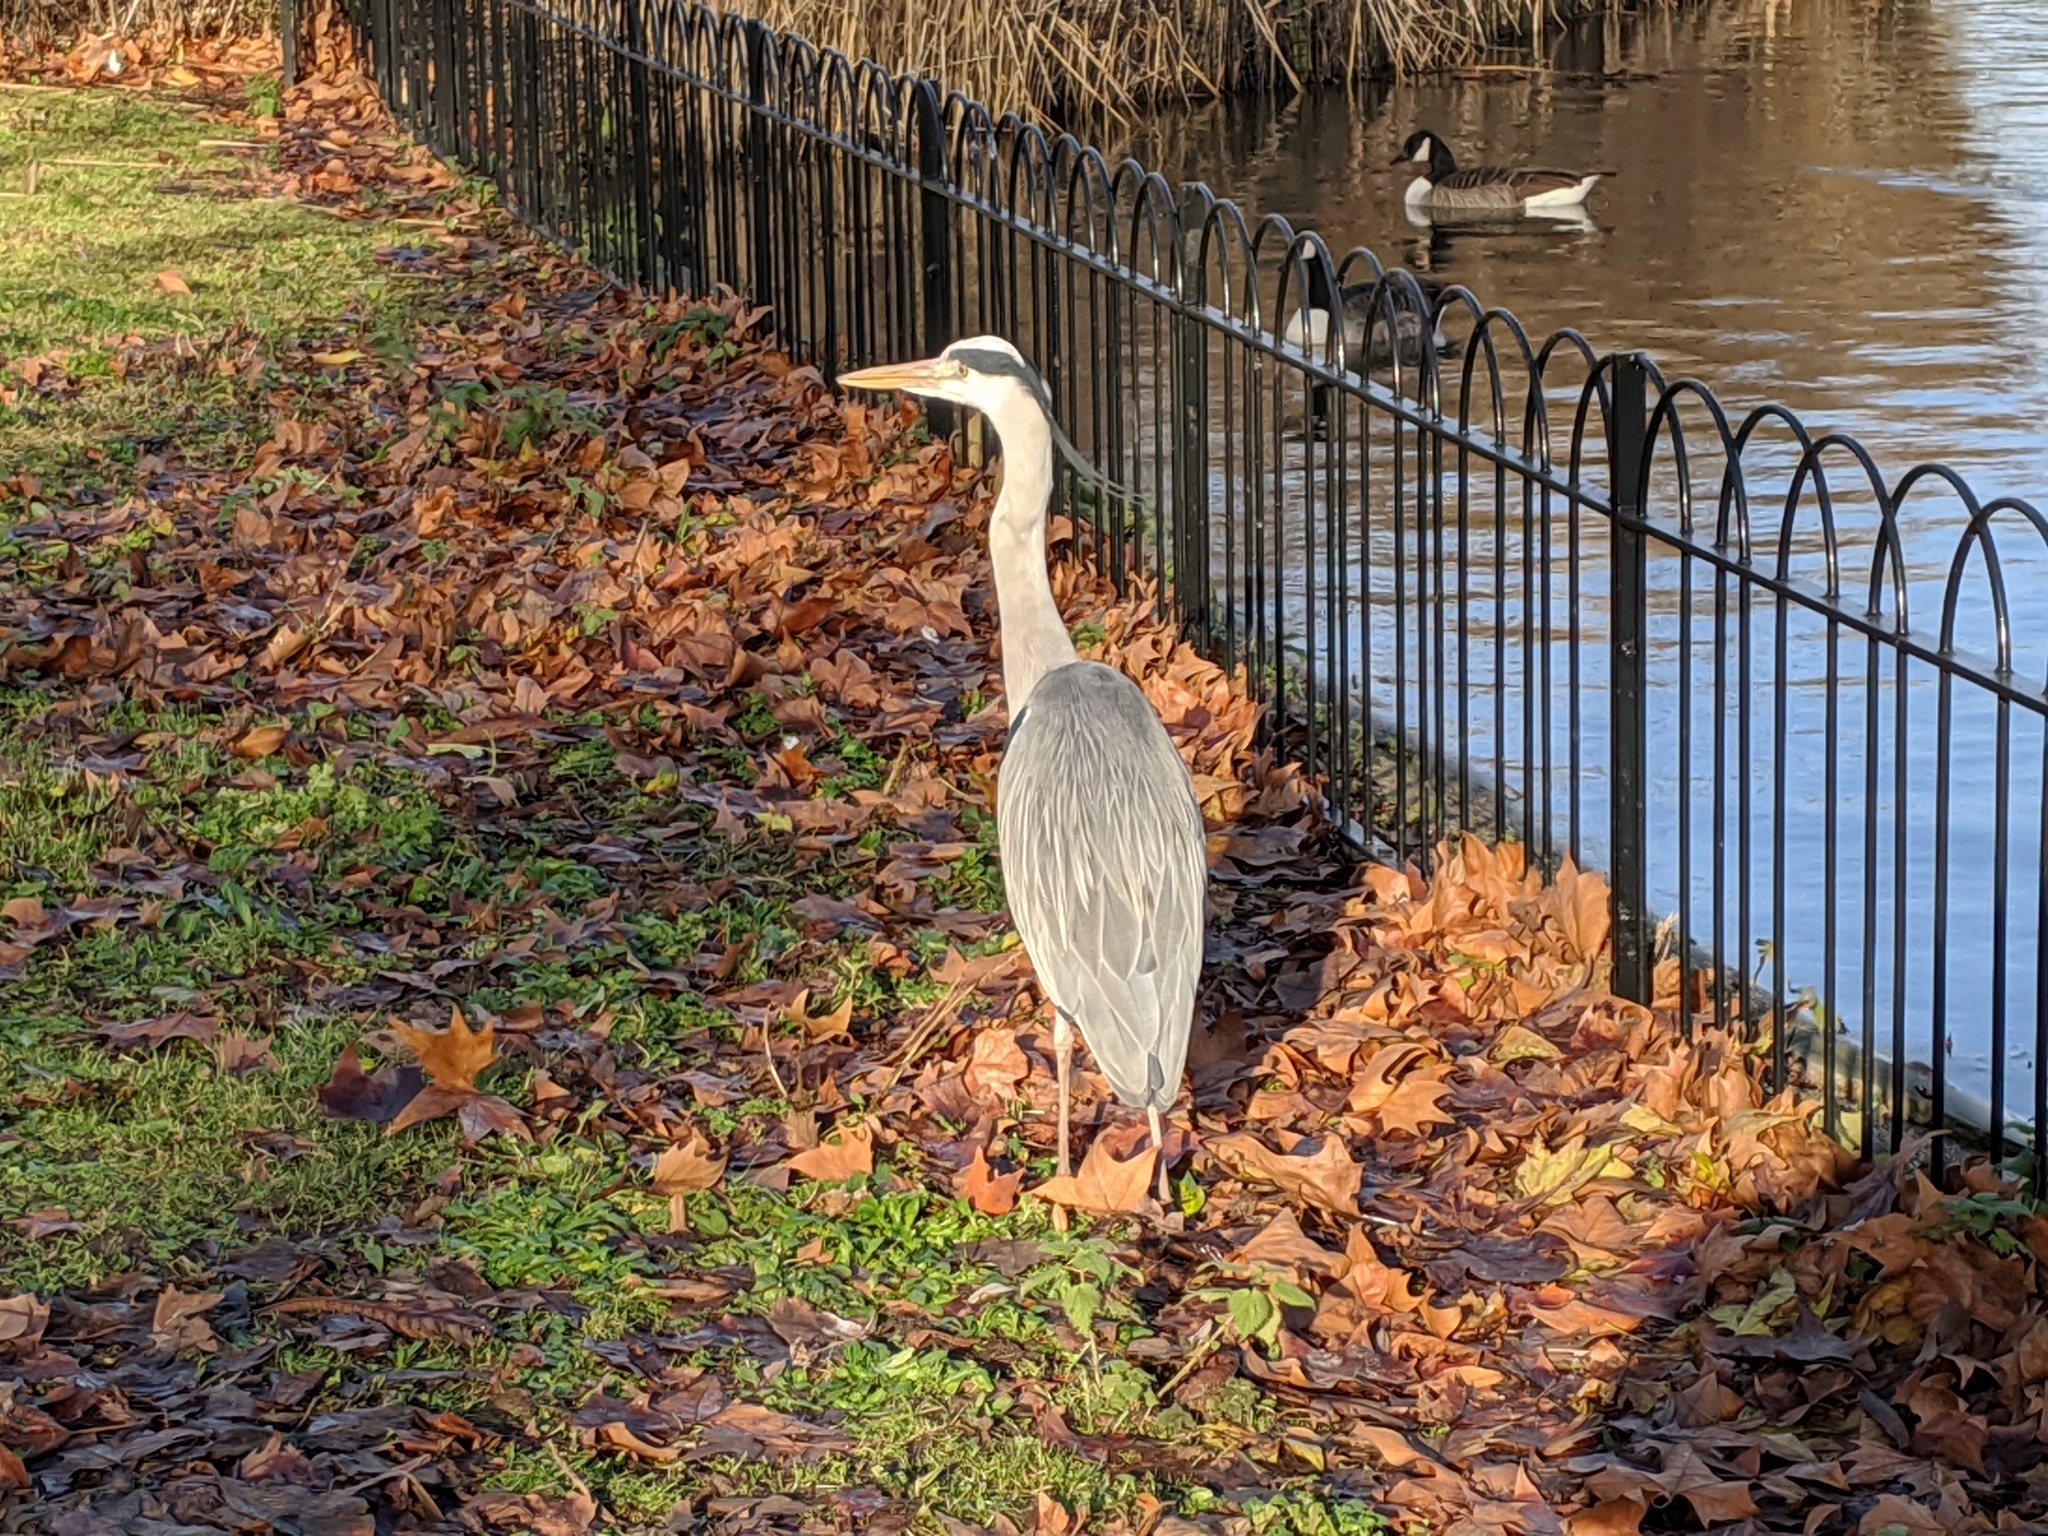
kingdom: Animalia
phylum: Chordata
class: Aves
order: Pelecaniformes
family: Ardeidae
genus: Ardea
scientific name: Ardea cinerea
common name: Grey heron
